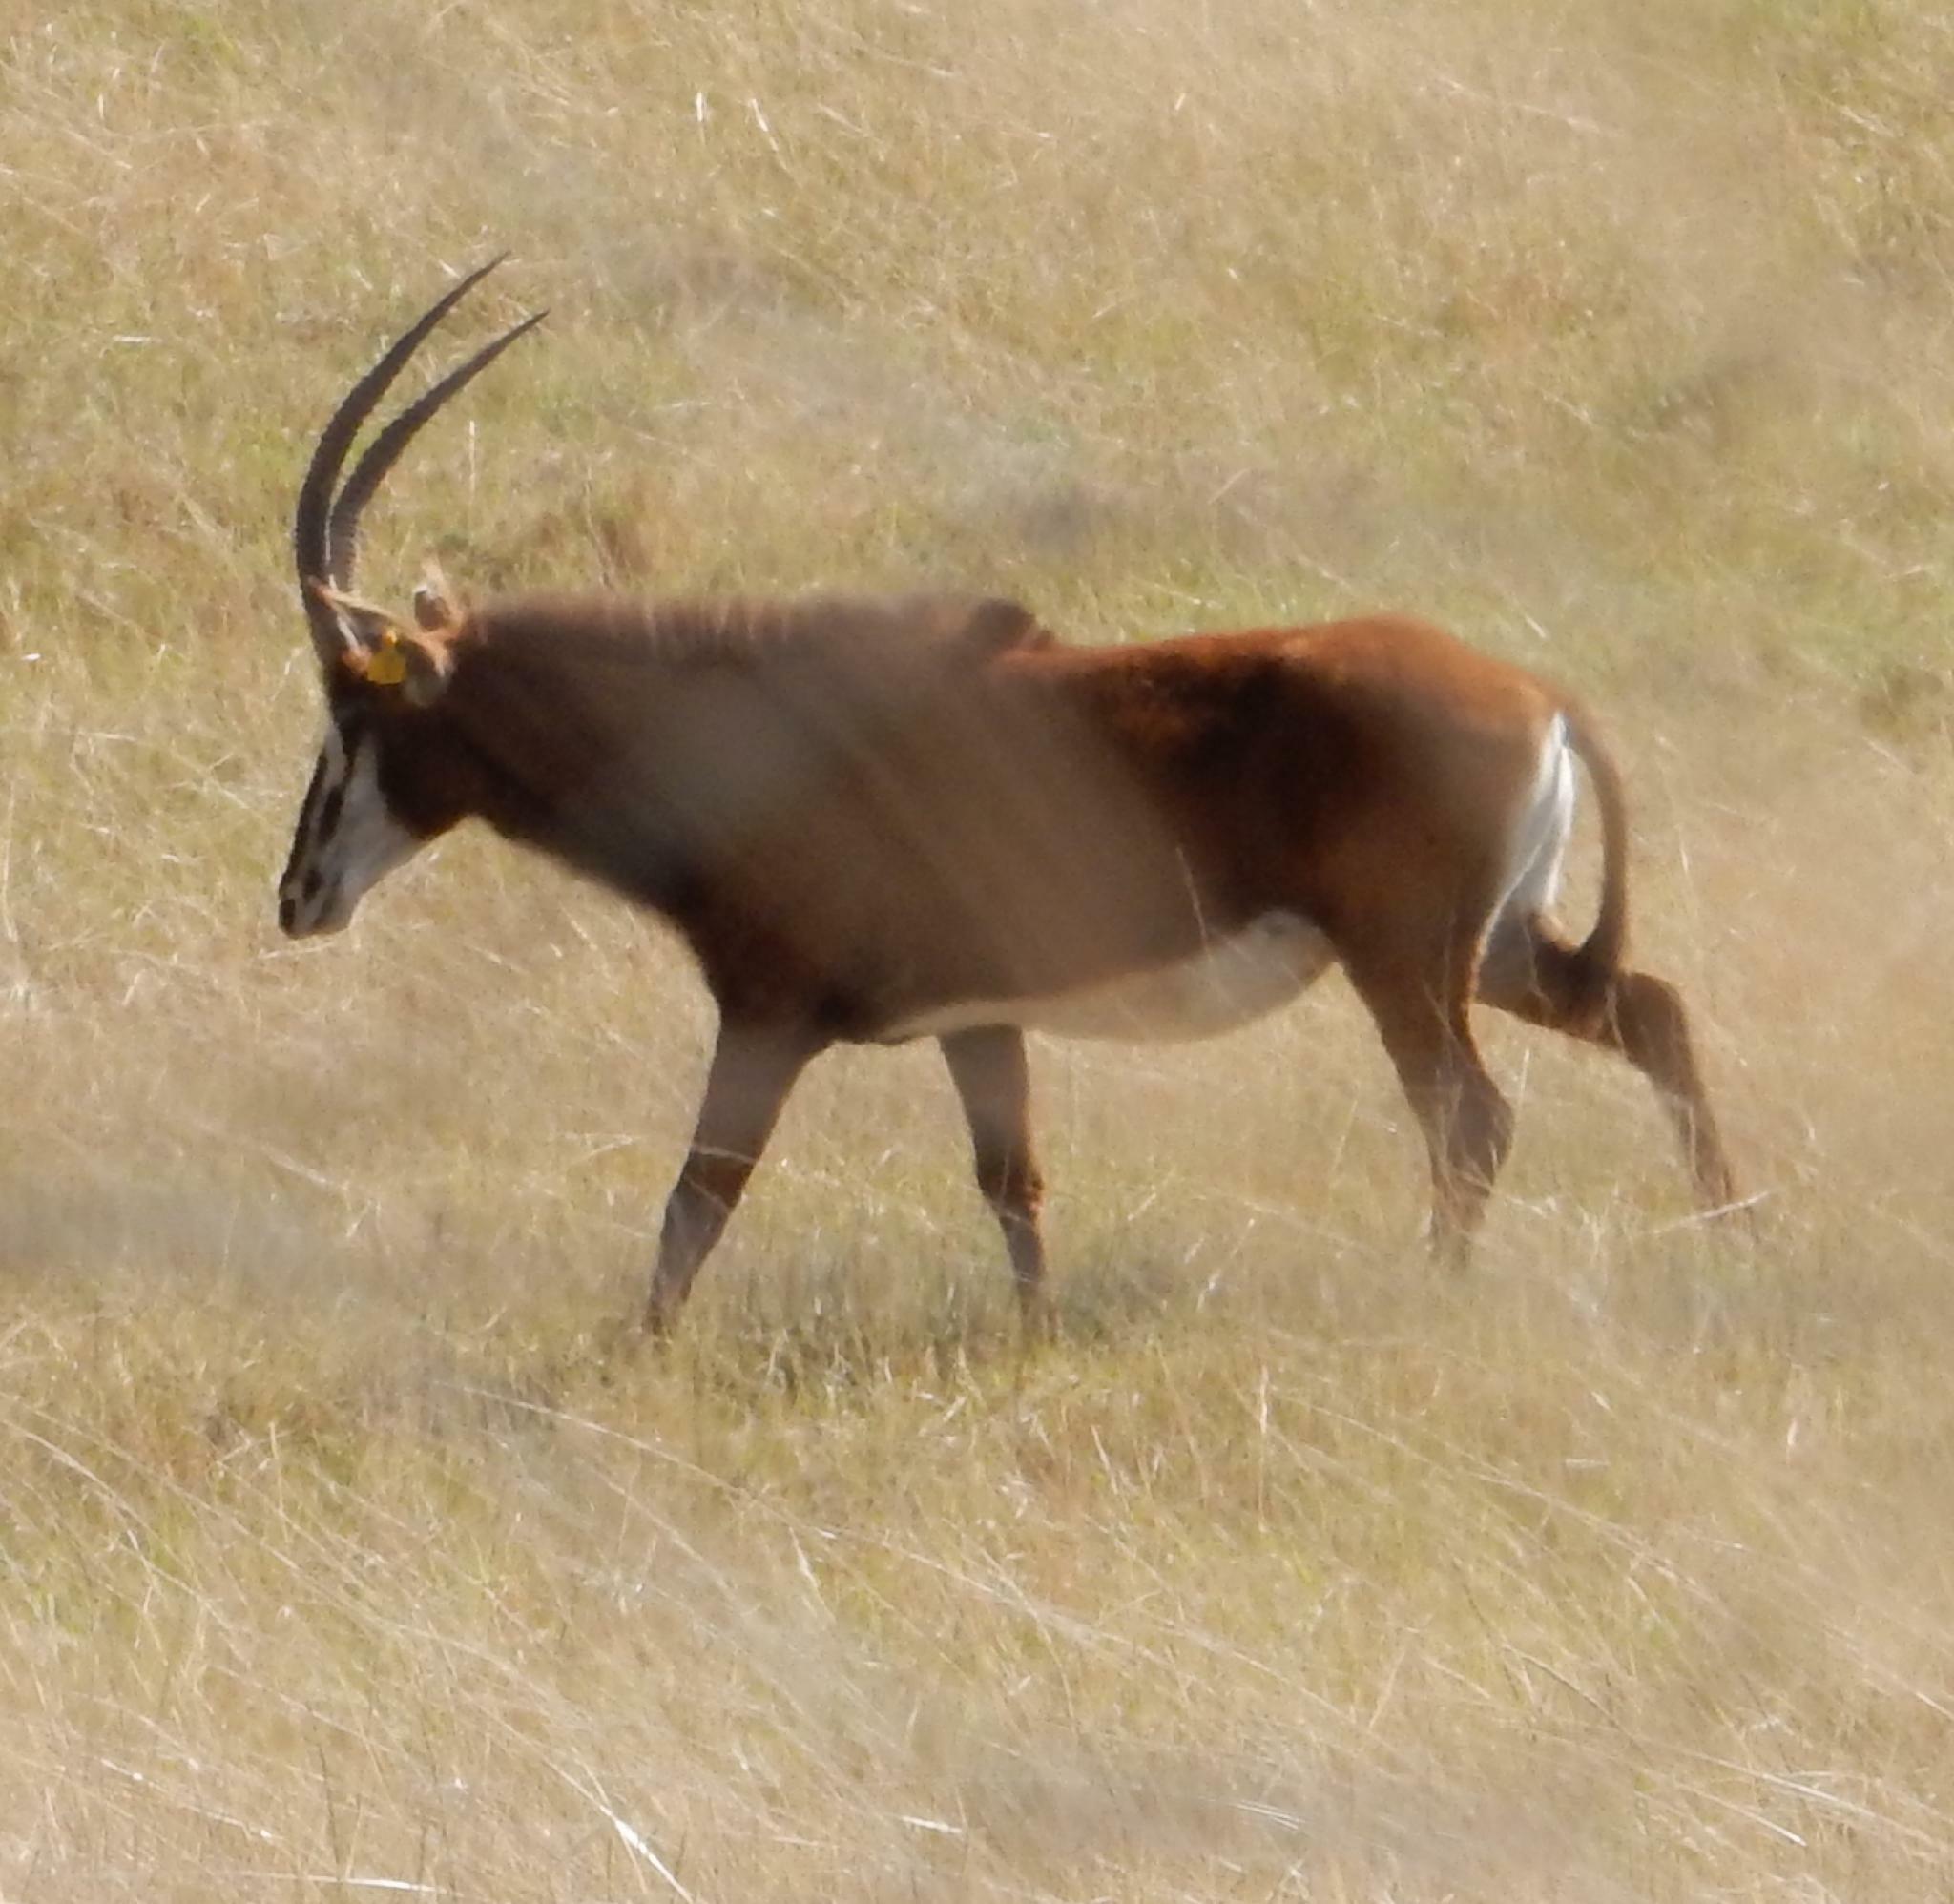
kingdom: Animalia
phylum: Chordata
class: Mammalia
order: Artiodactyla
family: Bovidae
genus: Hippotragus
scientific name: Hippotragus niger
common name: Sable antelope
